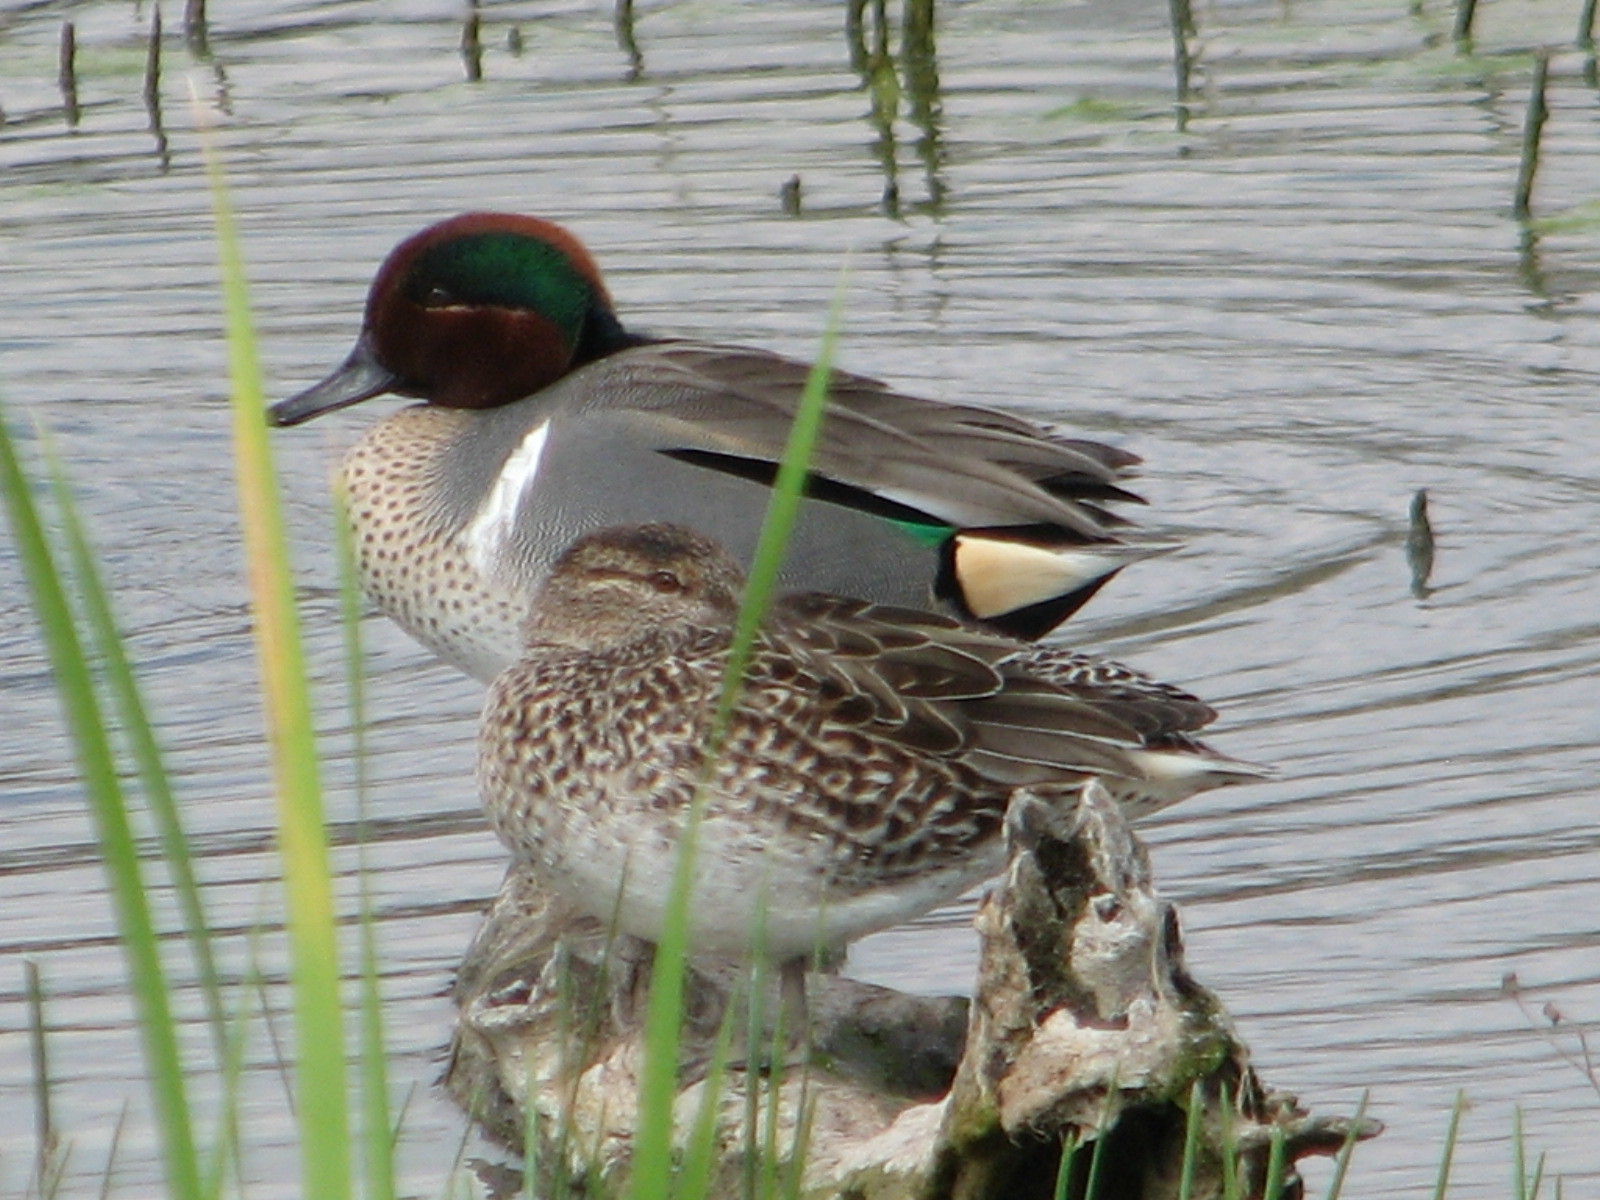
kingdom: Animalia
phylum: Chordata
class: Aves
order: Anseriformes
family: Anatidae
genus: Anas
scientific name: Anas crecca
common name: Eurasian teal
